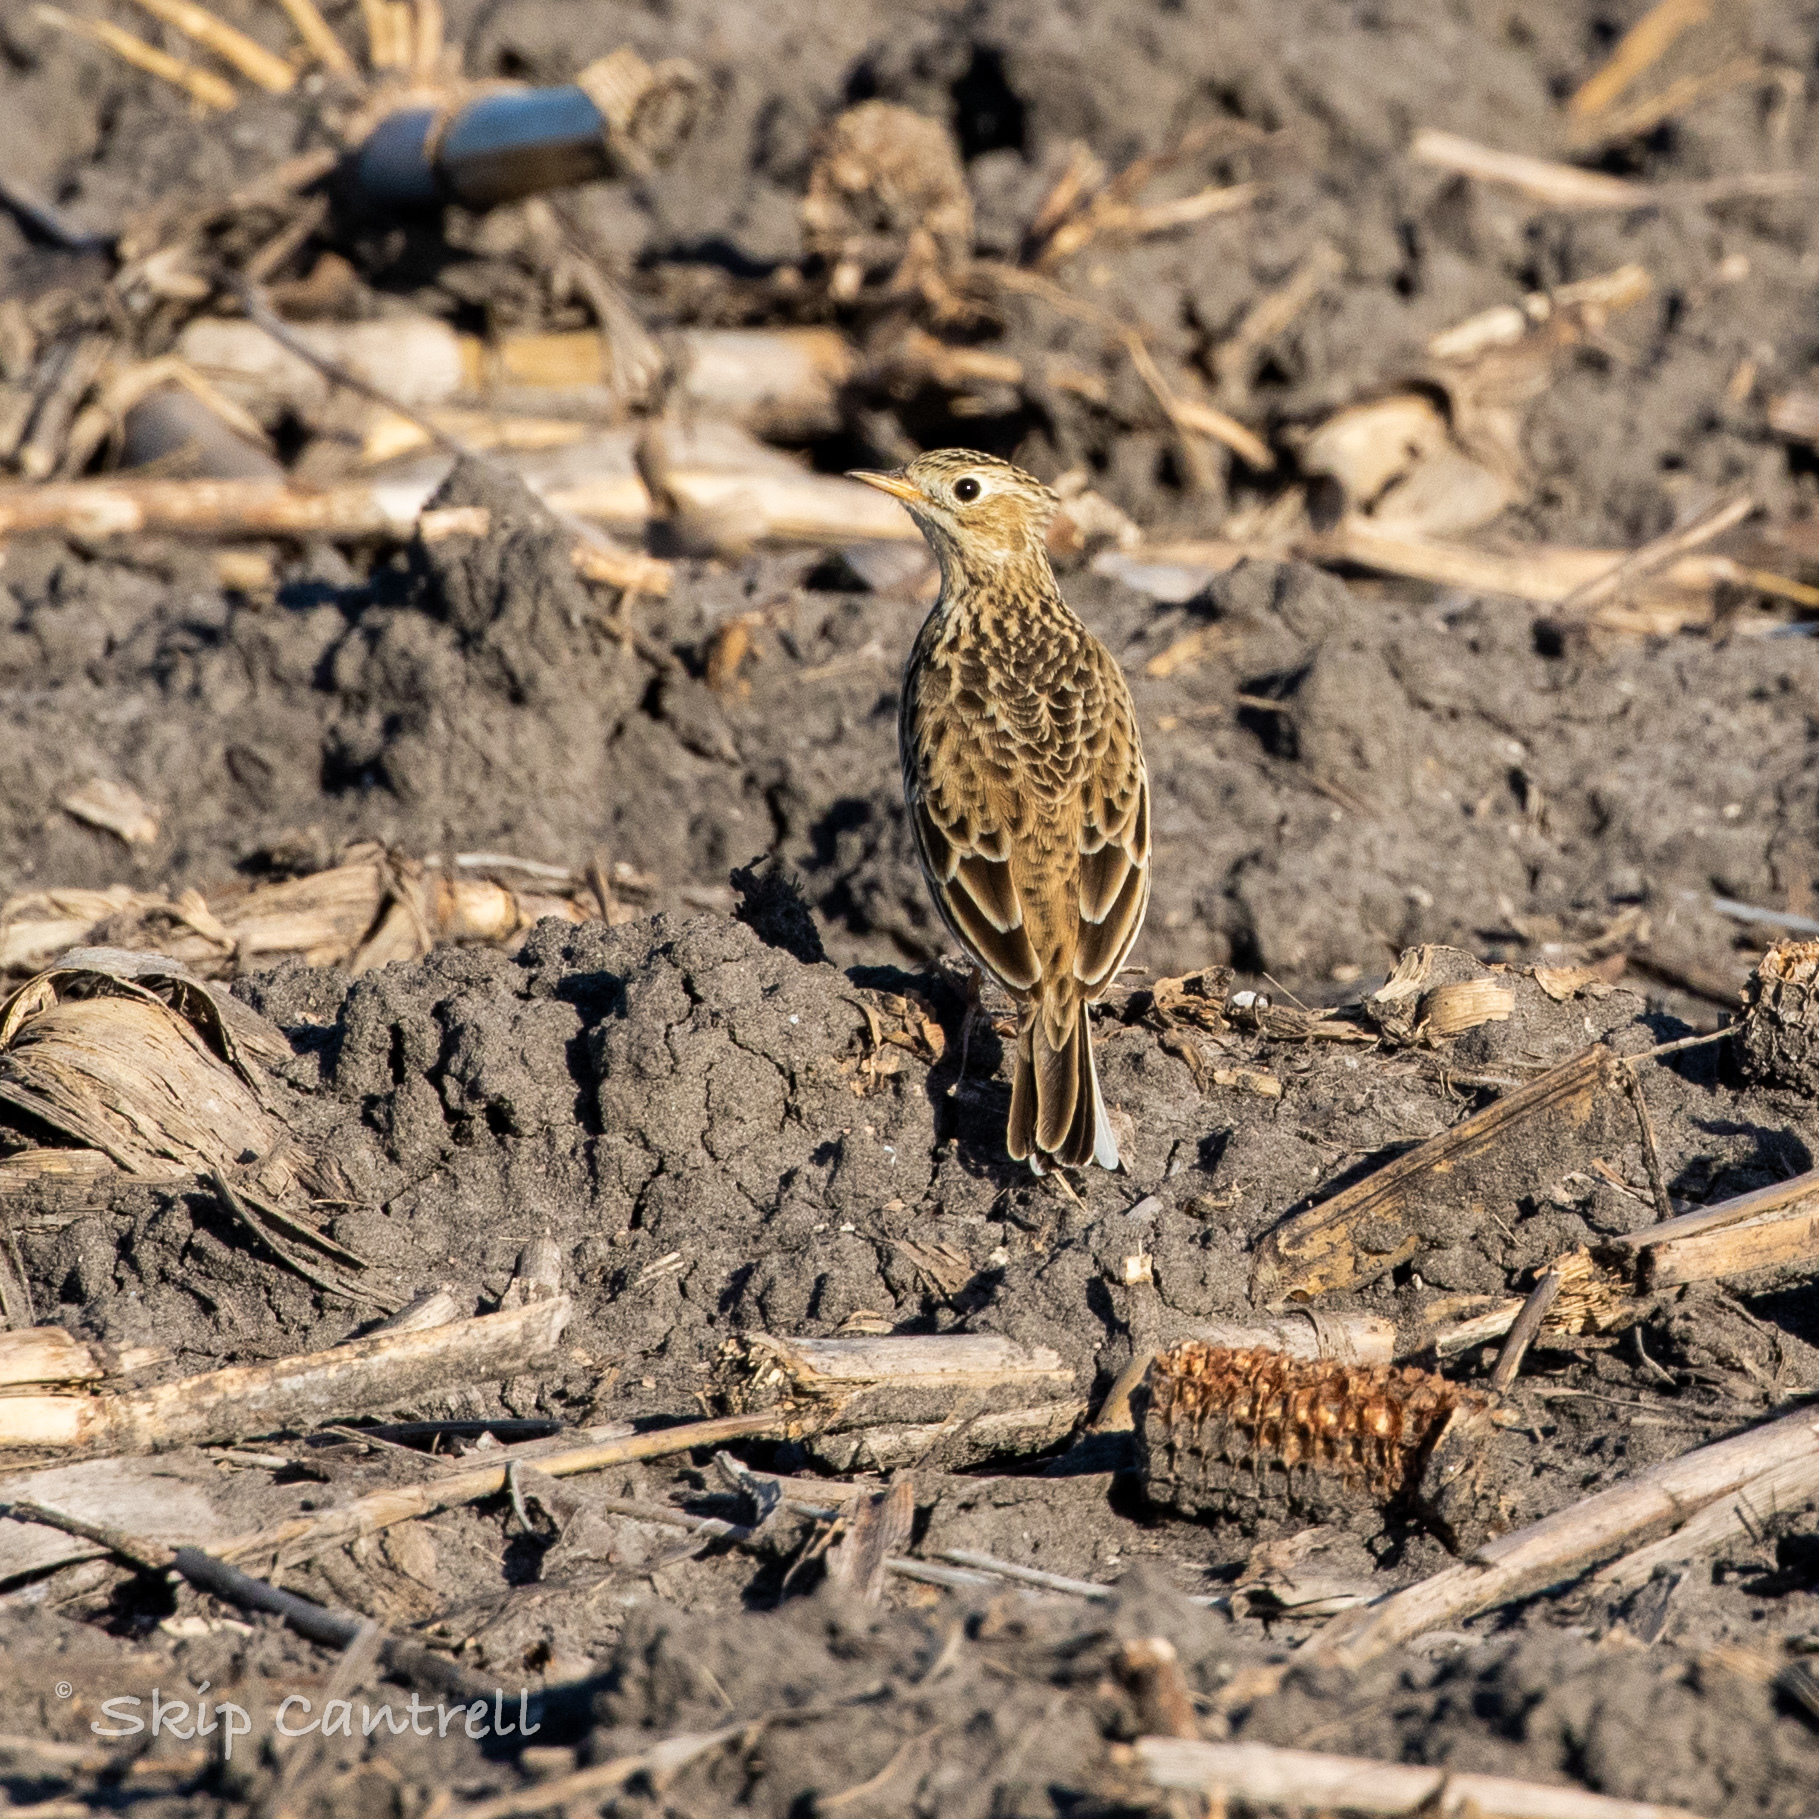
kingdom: Animalia
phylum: Chordata
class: Aves
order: Passeriformes
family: Motacillidae
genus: Anthus
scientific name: Anthus spragueii
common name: Sprague's pipit
